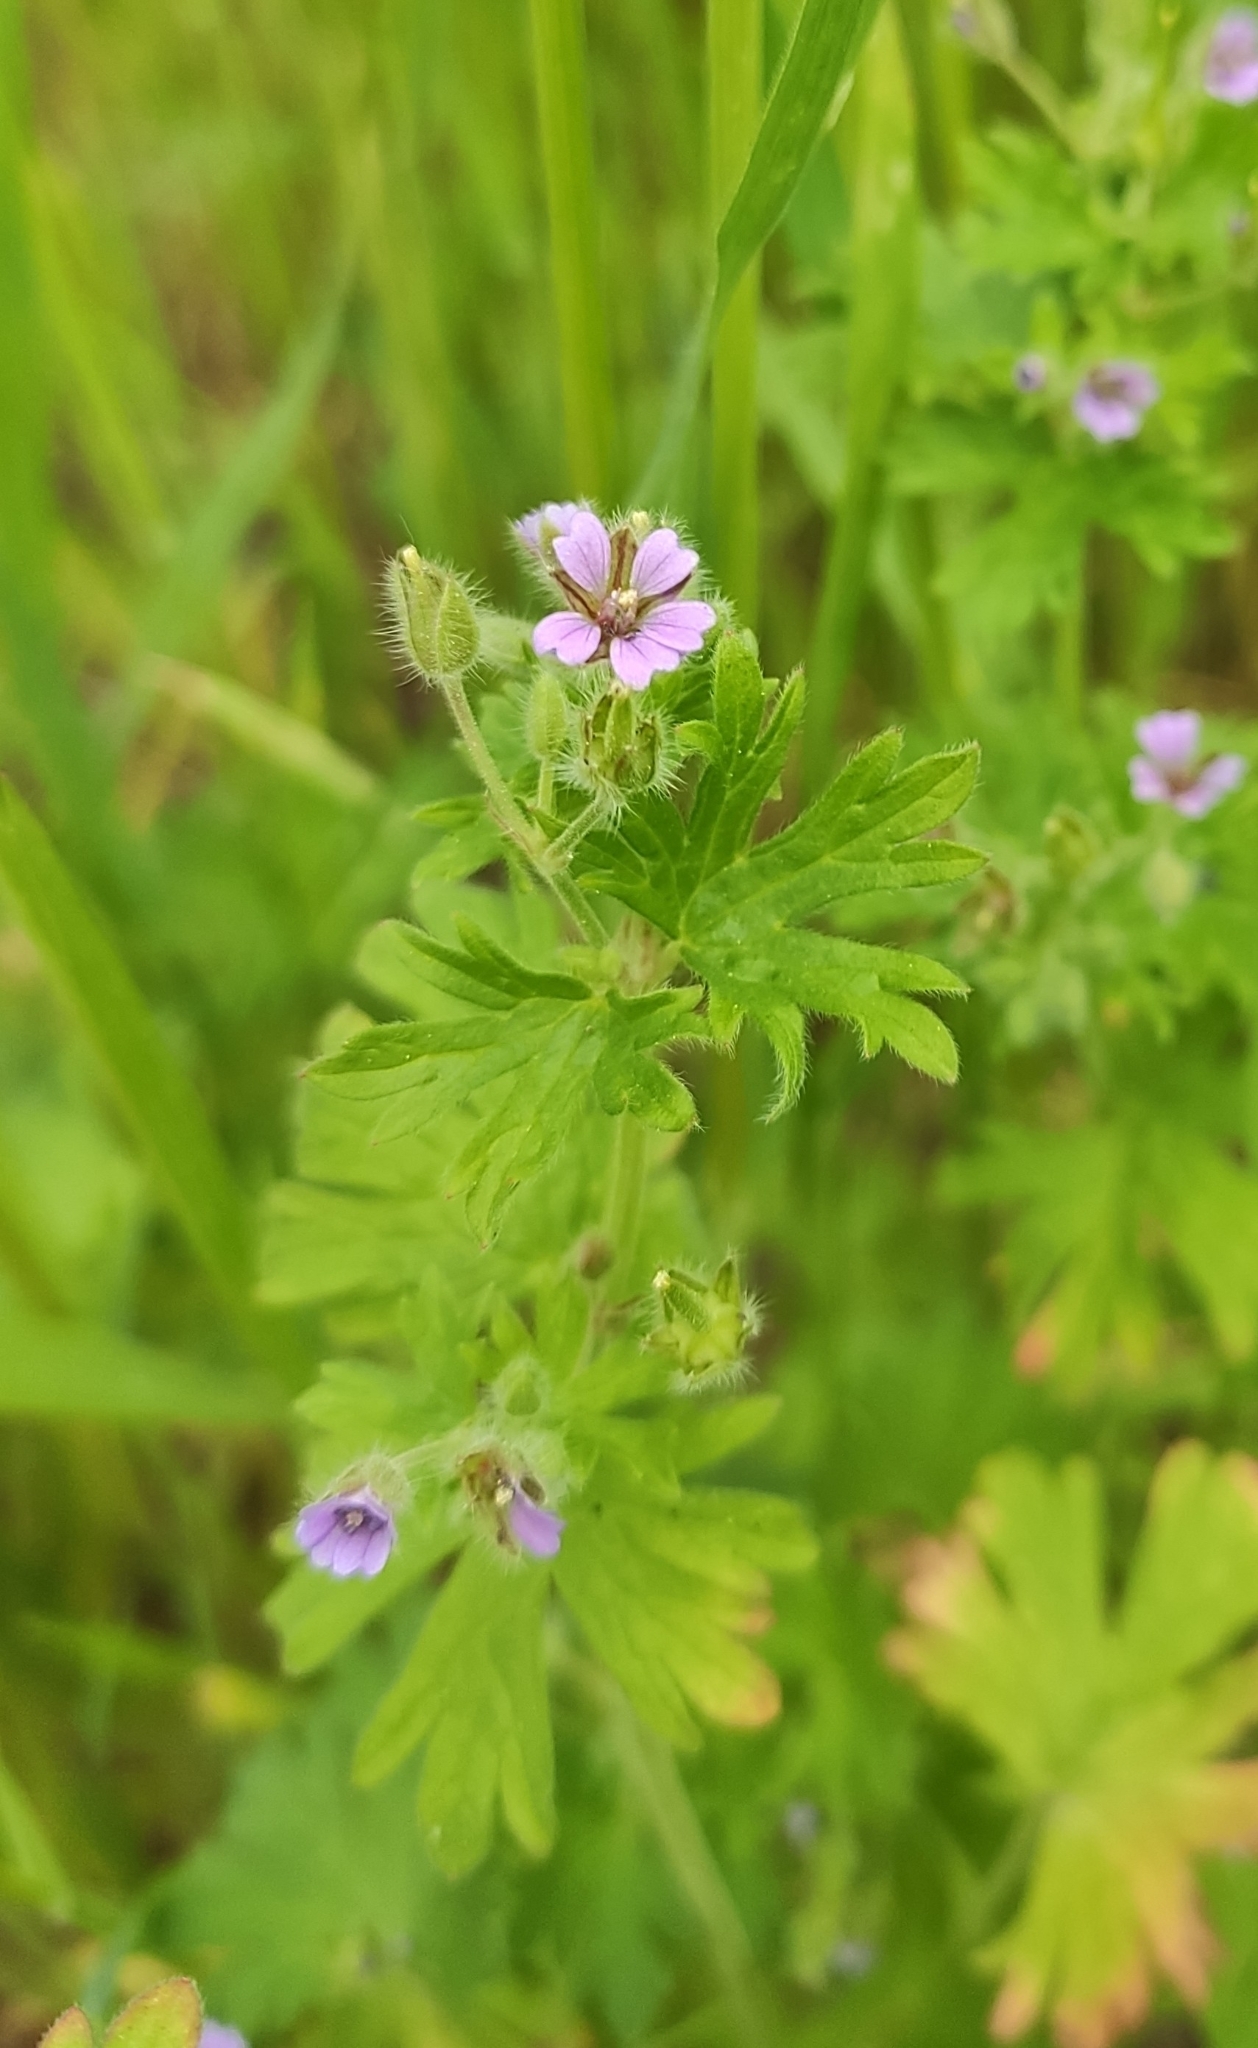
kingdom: Plantae
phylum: Tracheophyta
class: Magnoliopsida
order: Geraniales
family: Geraniaceae
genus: Geranium
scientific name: Geranium pusillum
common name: Small geranium
